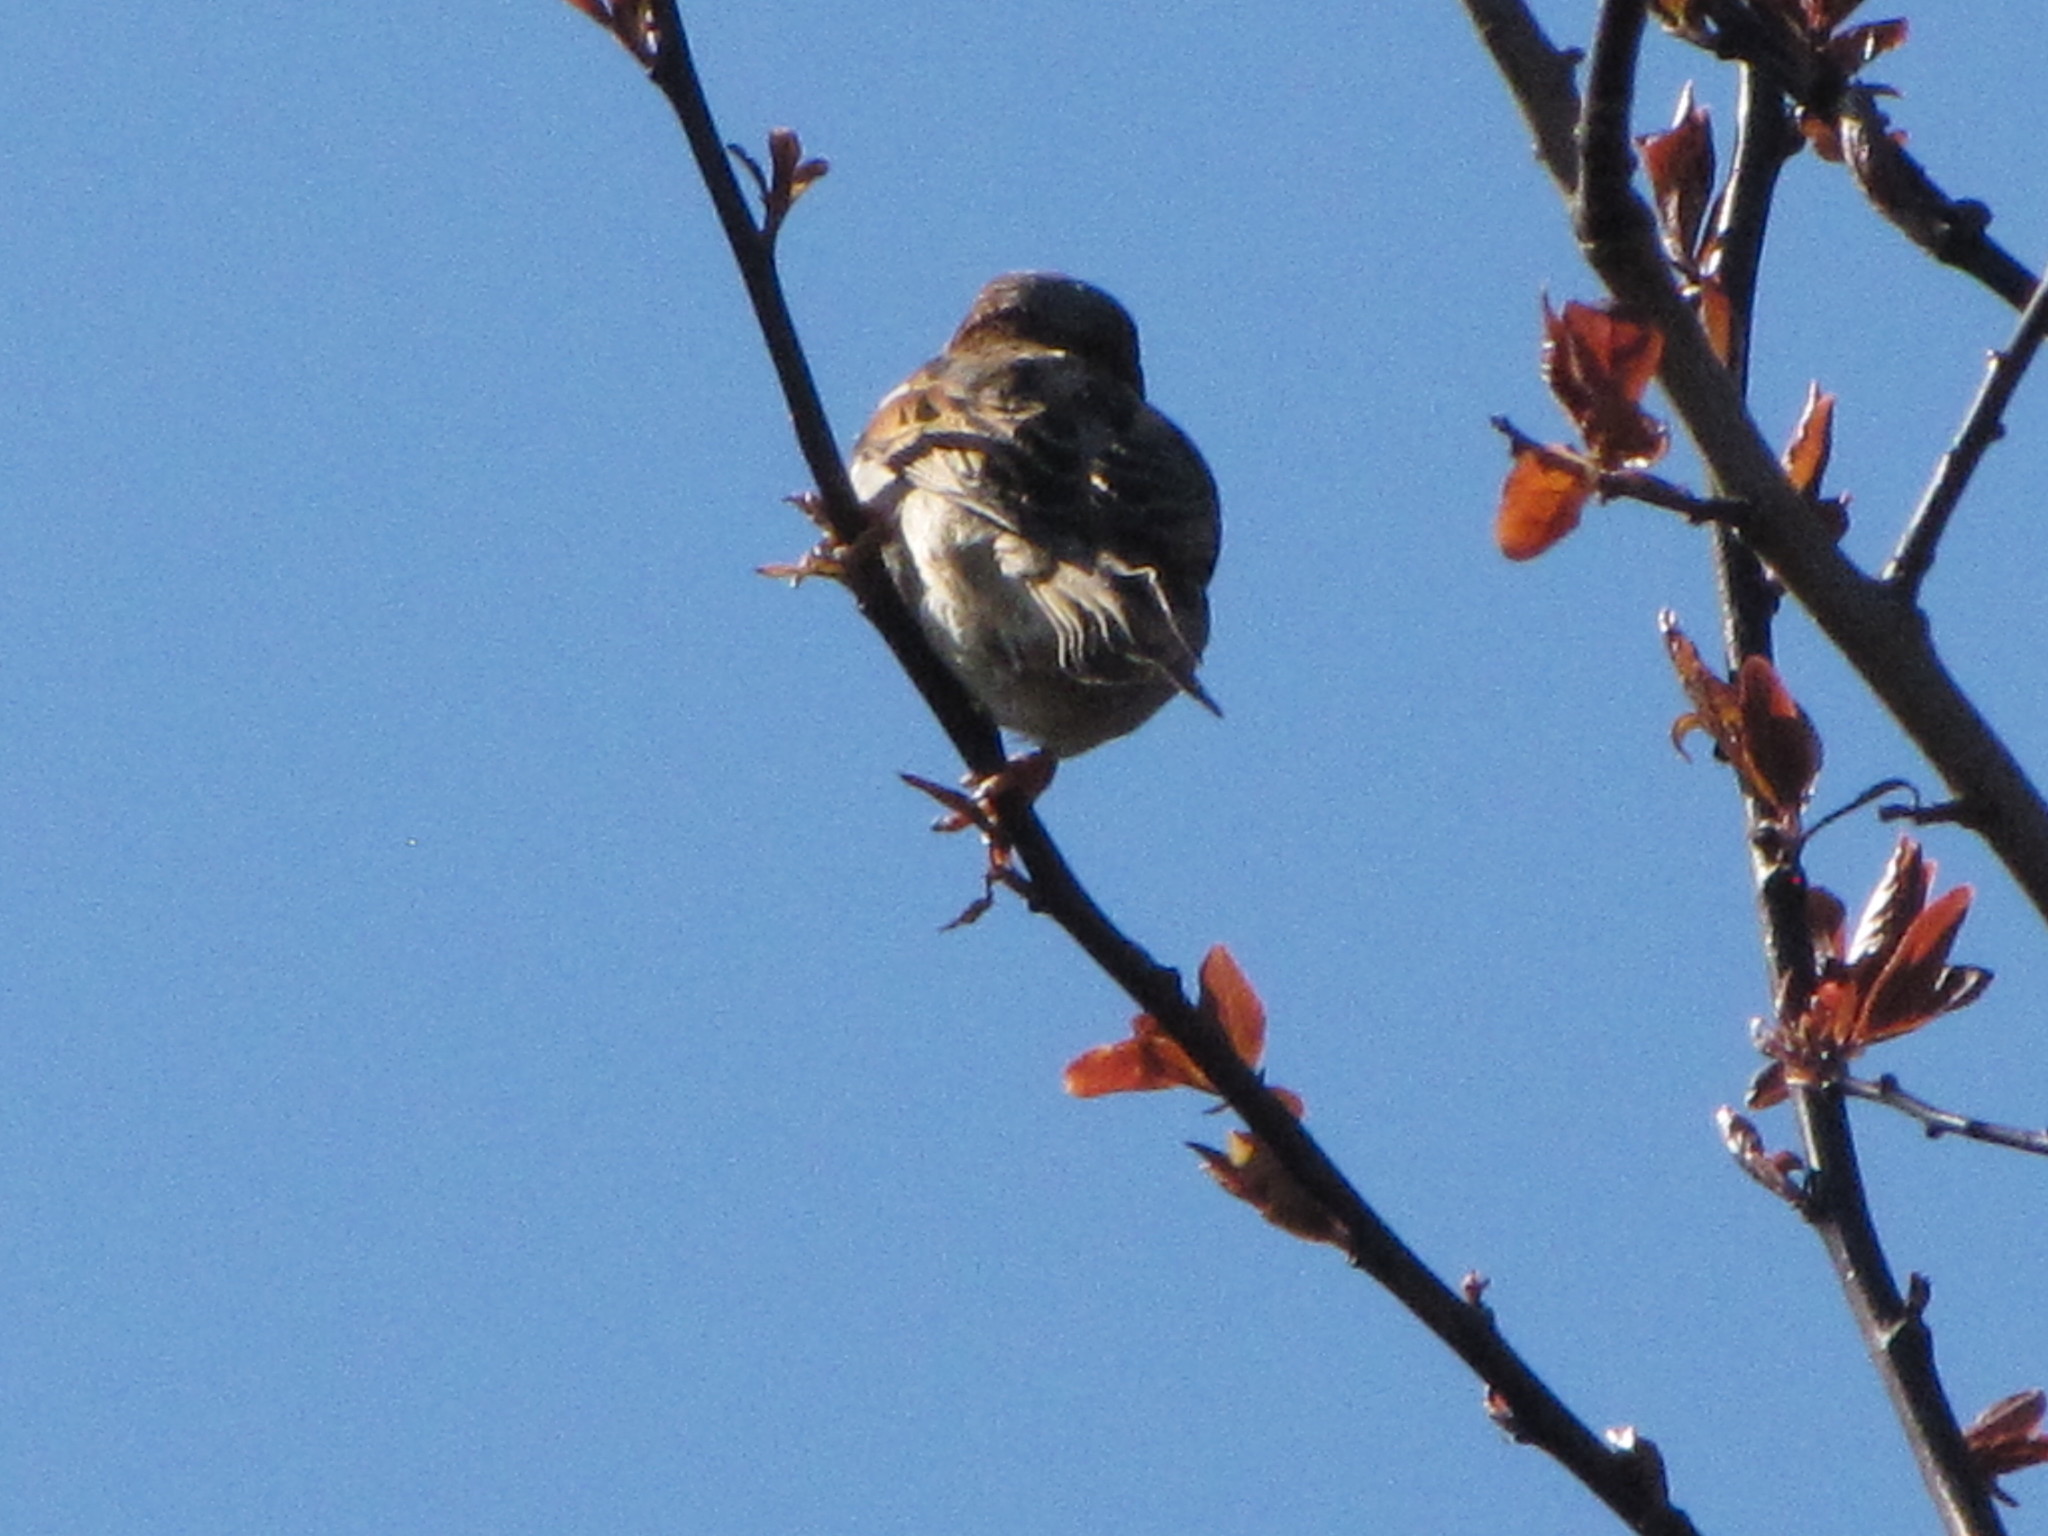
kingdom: Animalia
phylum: Chordata
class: Aves
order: Passeriformes
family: Passeridae
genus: Passer
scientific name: Passer domesticus
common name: House sparrow
